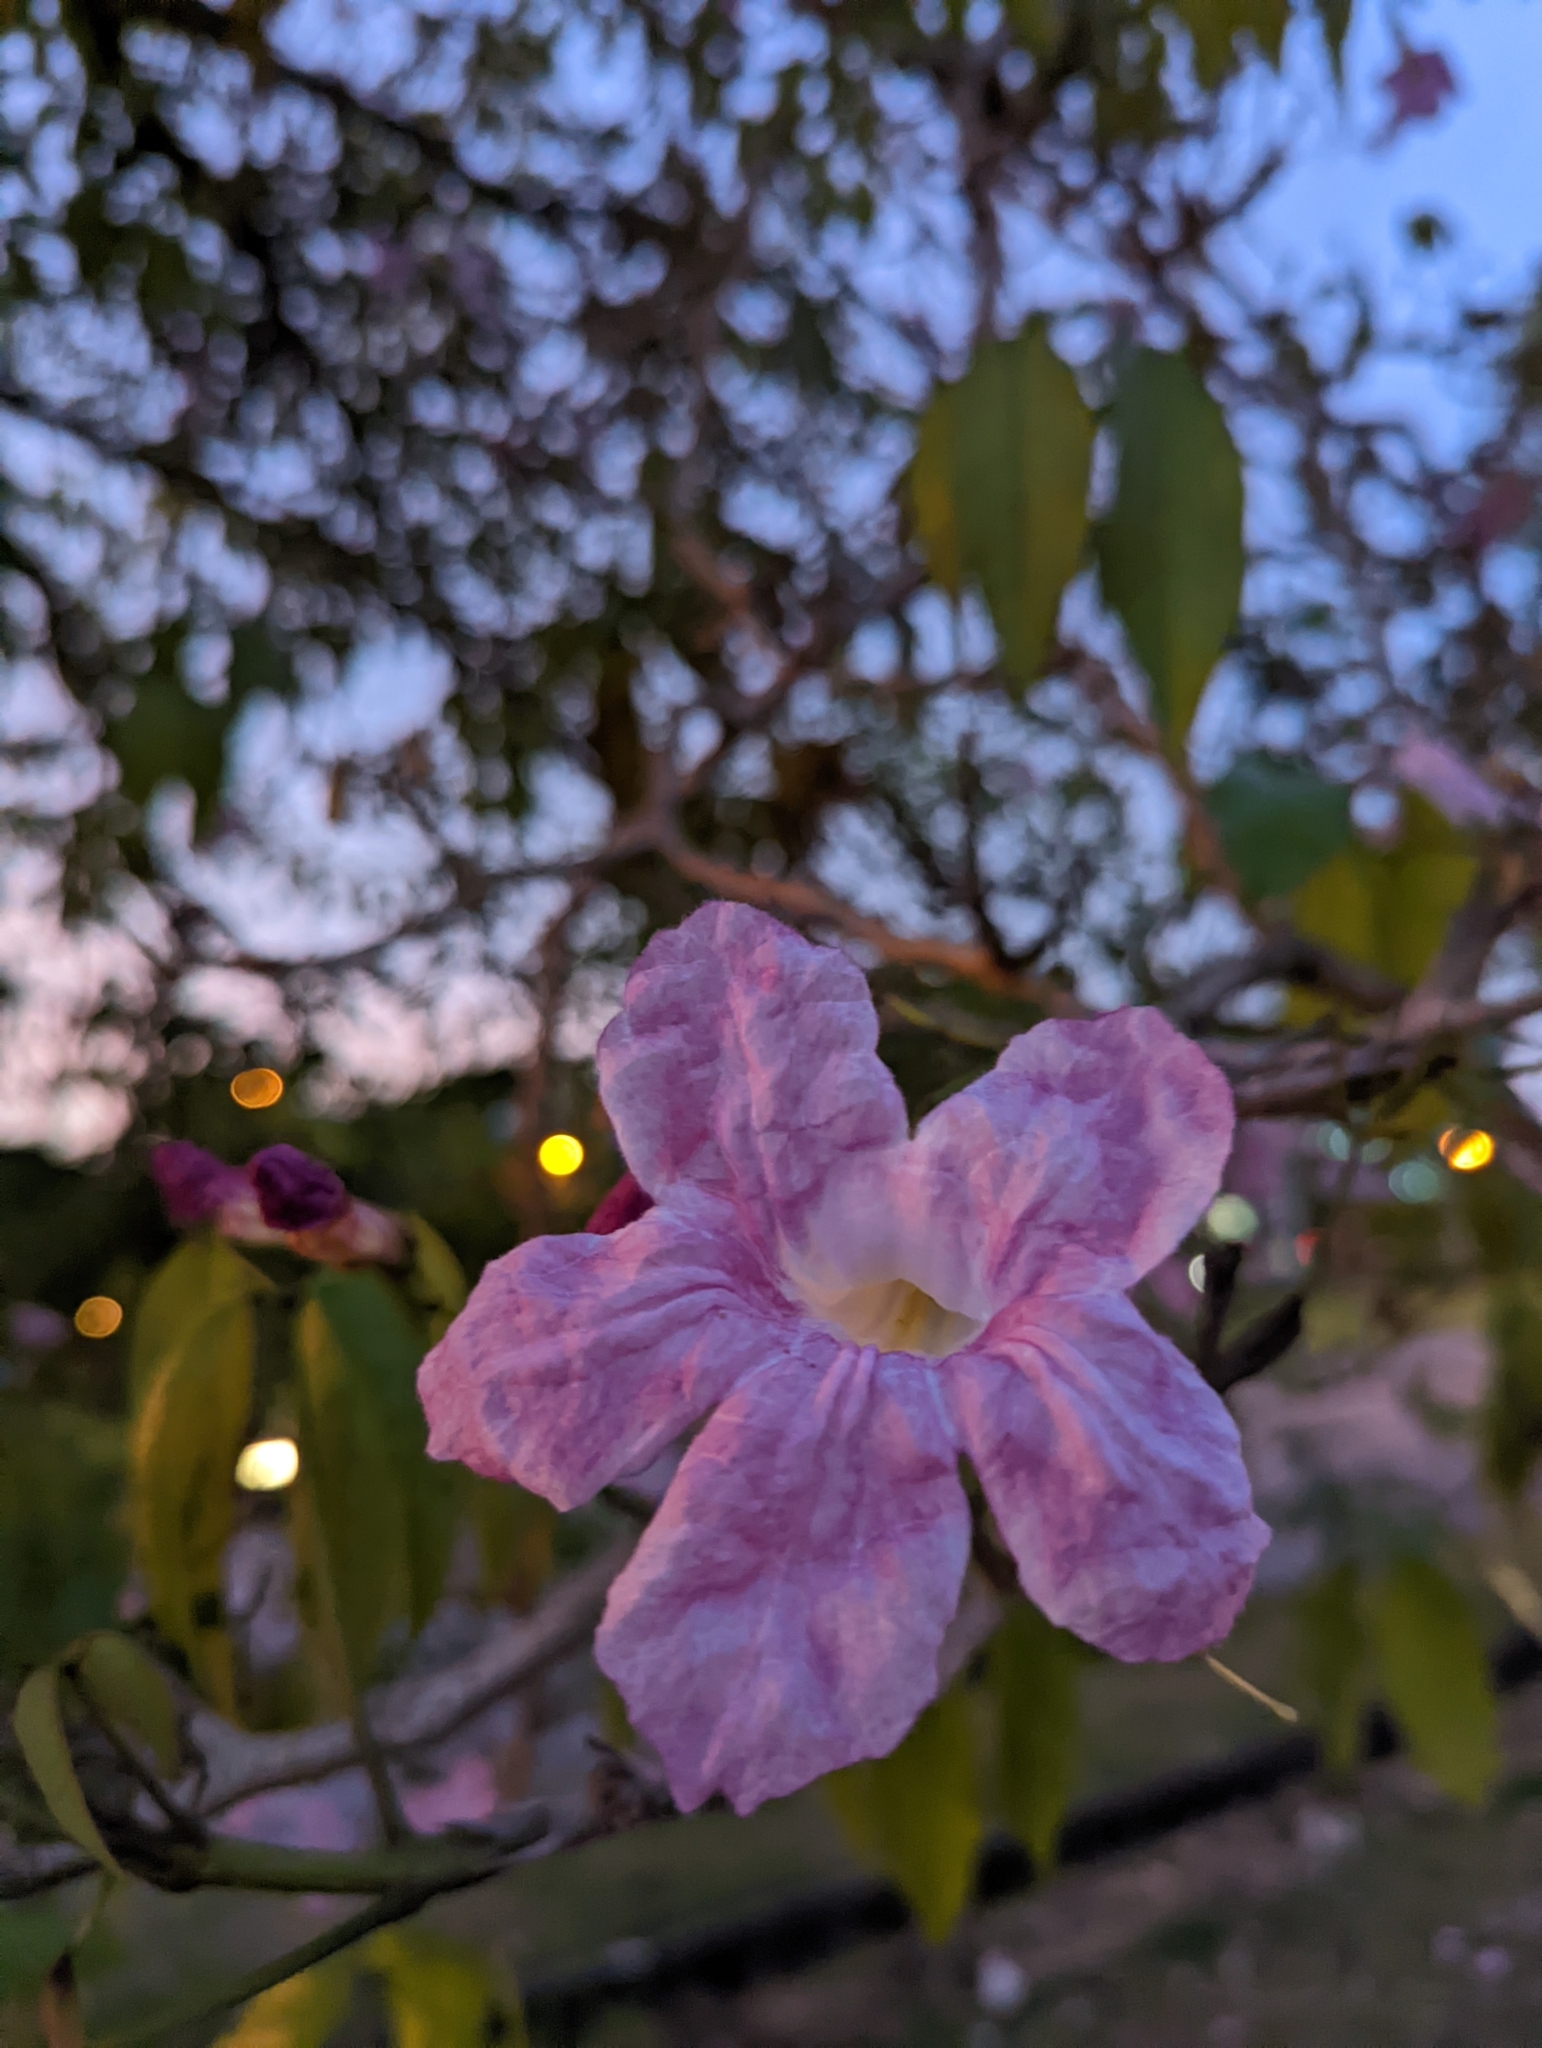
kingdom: Plantae
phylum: Tracheophyta
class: Magnoliopsida
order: Lamiales
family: Bignoniaceae
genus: Tabebuia
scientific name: Tabebuia rosea
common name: Pink poui
